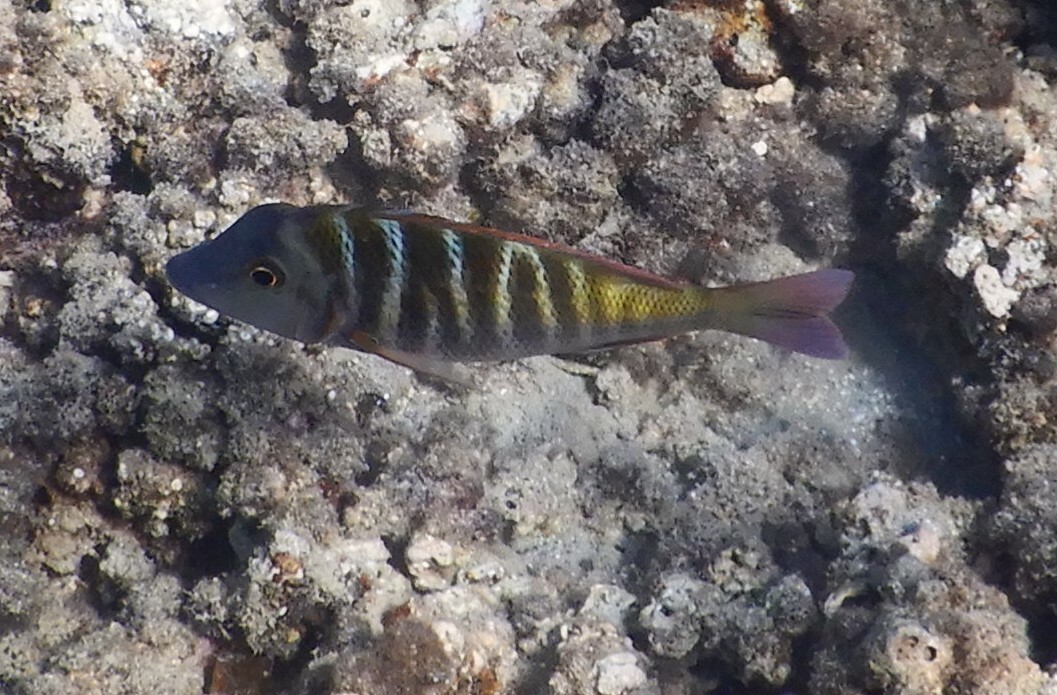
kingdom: Animalia
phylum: Chordata
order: Perciformes
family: Lethrinidae
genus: Lethrinus
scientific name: Lethrinus mahsena
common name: Sky emperor
